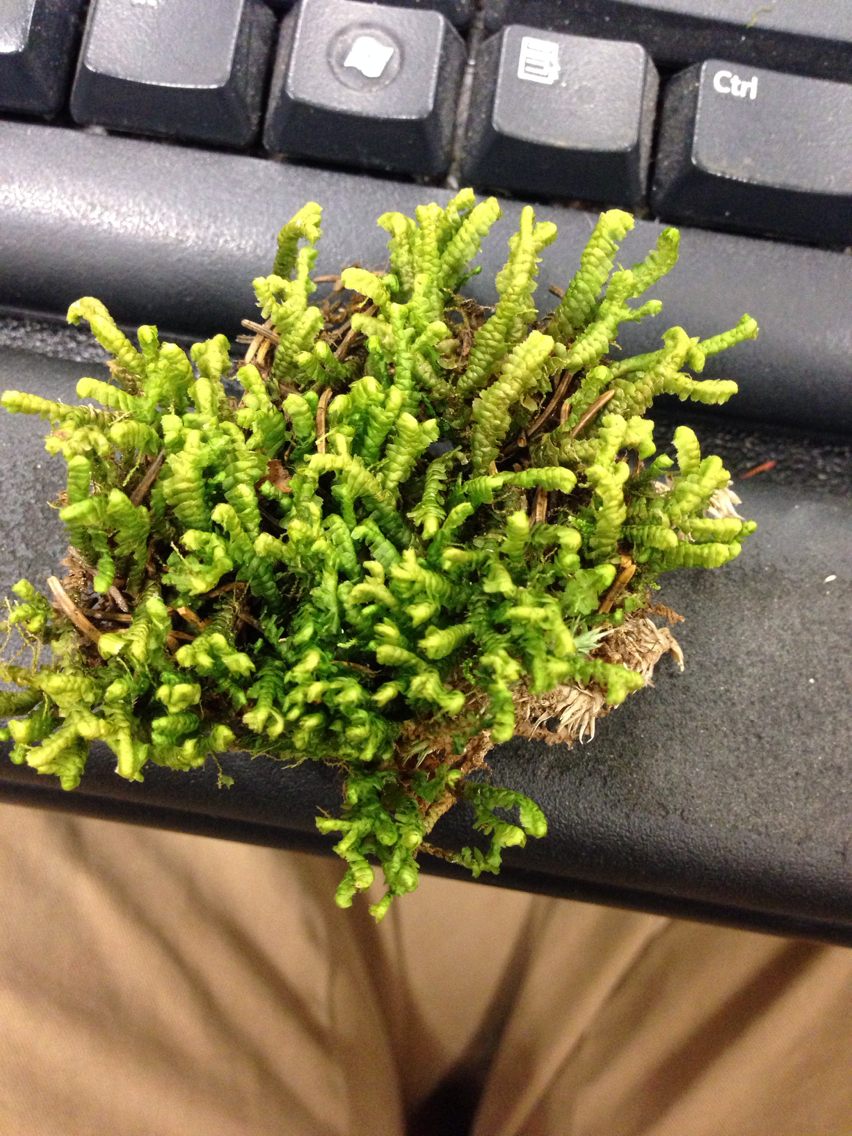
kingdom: Plantae
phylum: Marchantiophyta
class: Jungermanniopsida
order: Jungermanniales
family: Lepidoziaceae
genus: Bazzania
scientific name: Bazzania trilobata
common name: Three-lobed whipwort
